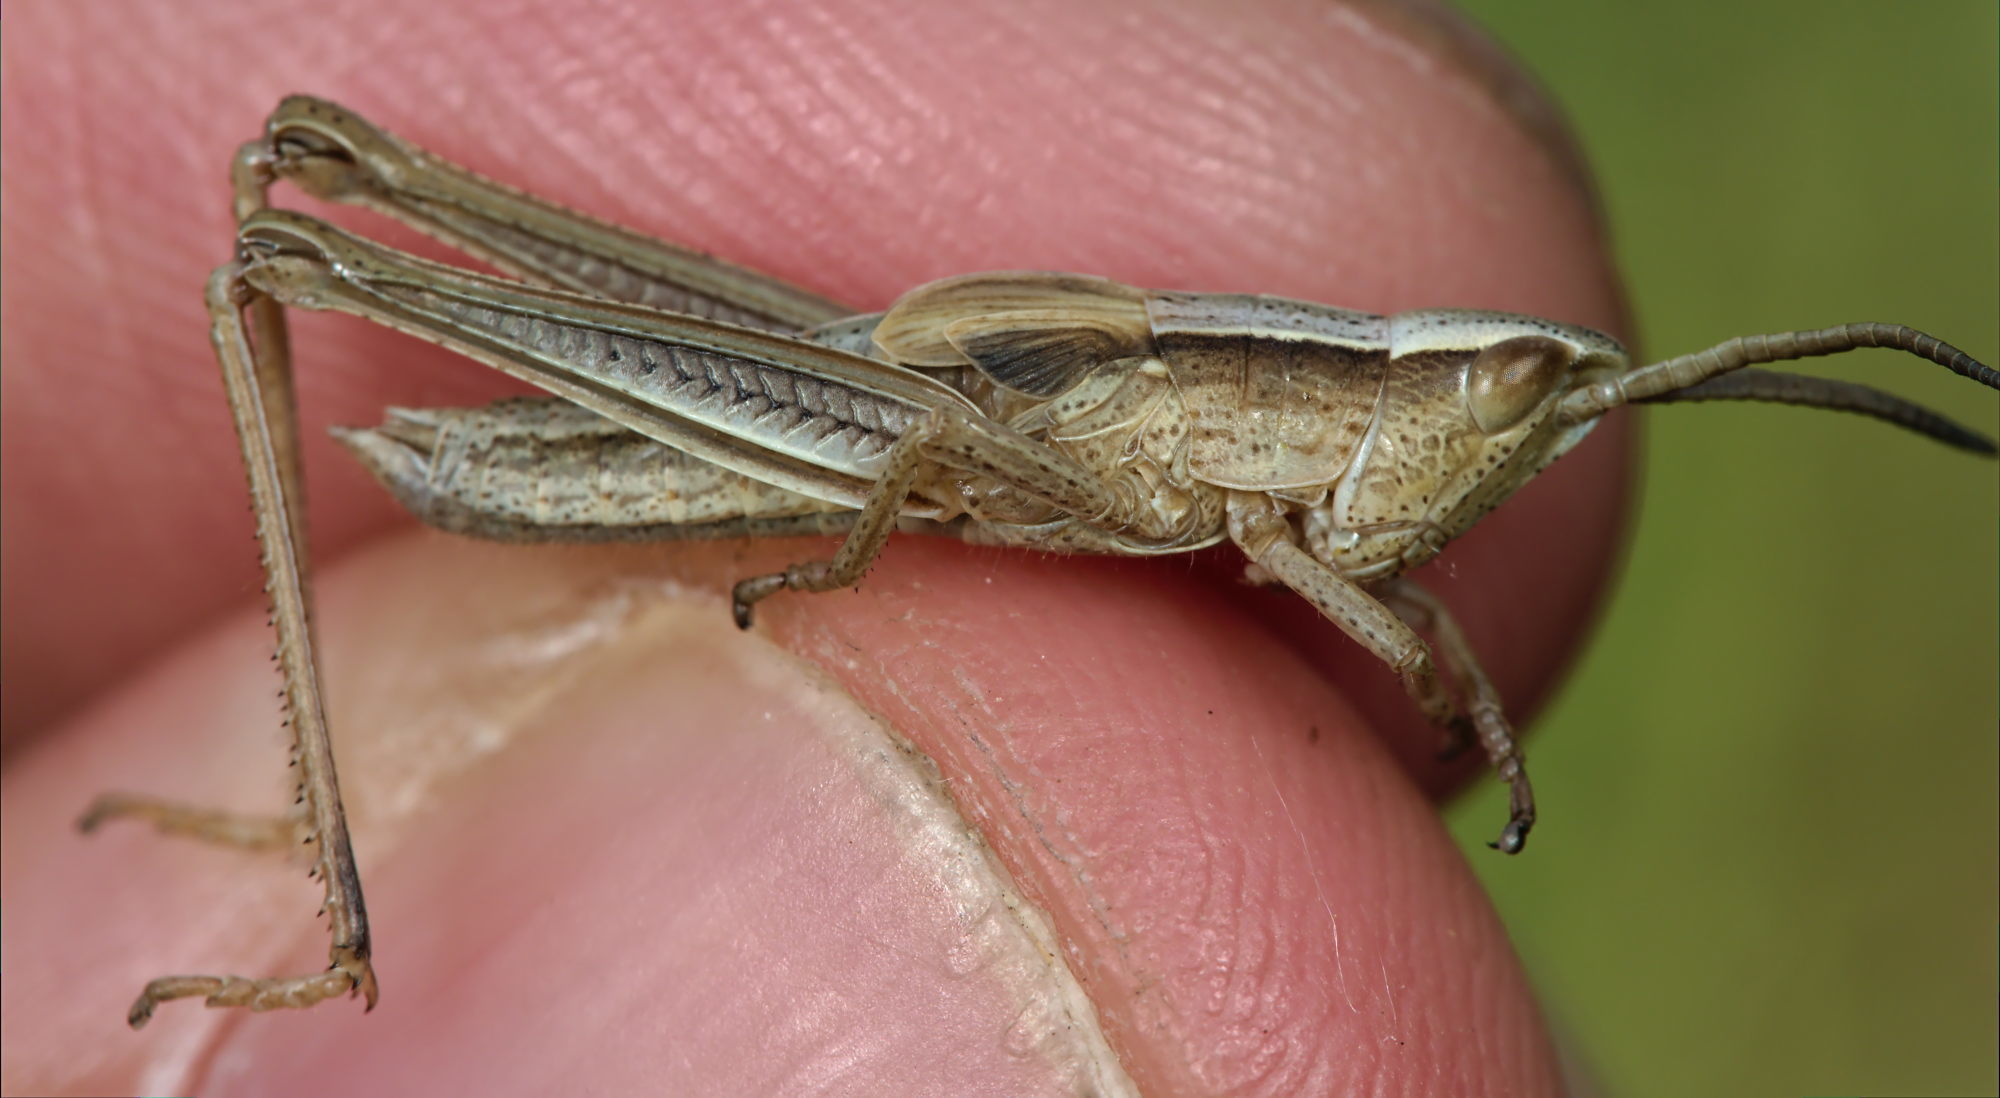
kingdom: Animalia
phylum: Arthropoda
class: Insecta
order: Orthoptera
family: Acrididae
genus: Chrysochraon
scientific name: Chrysochraon dispar
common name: Large gold grasshopper
